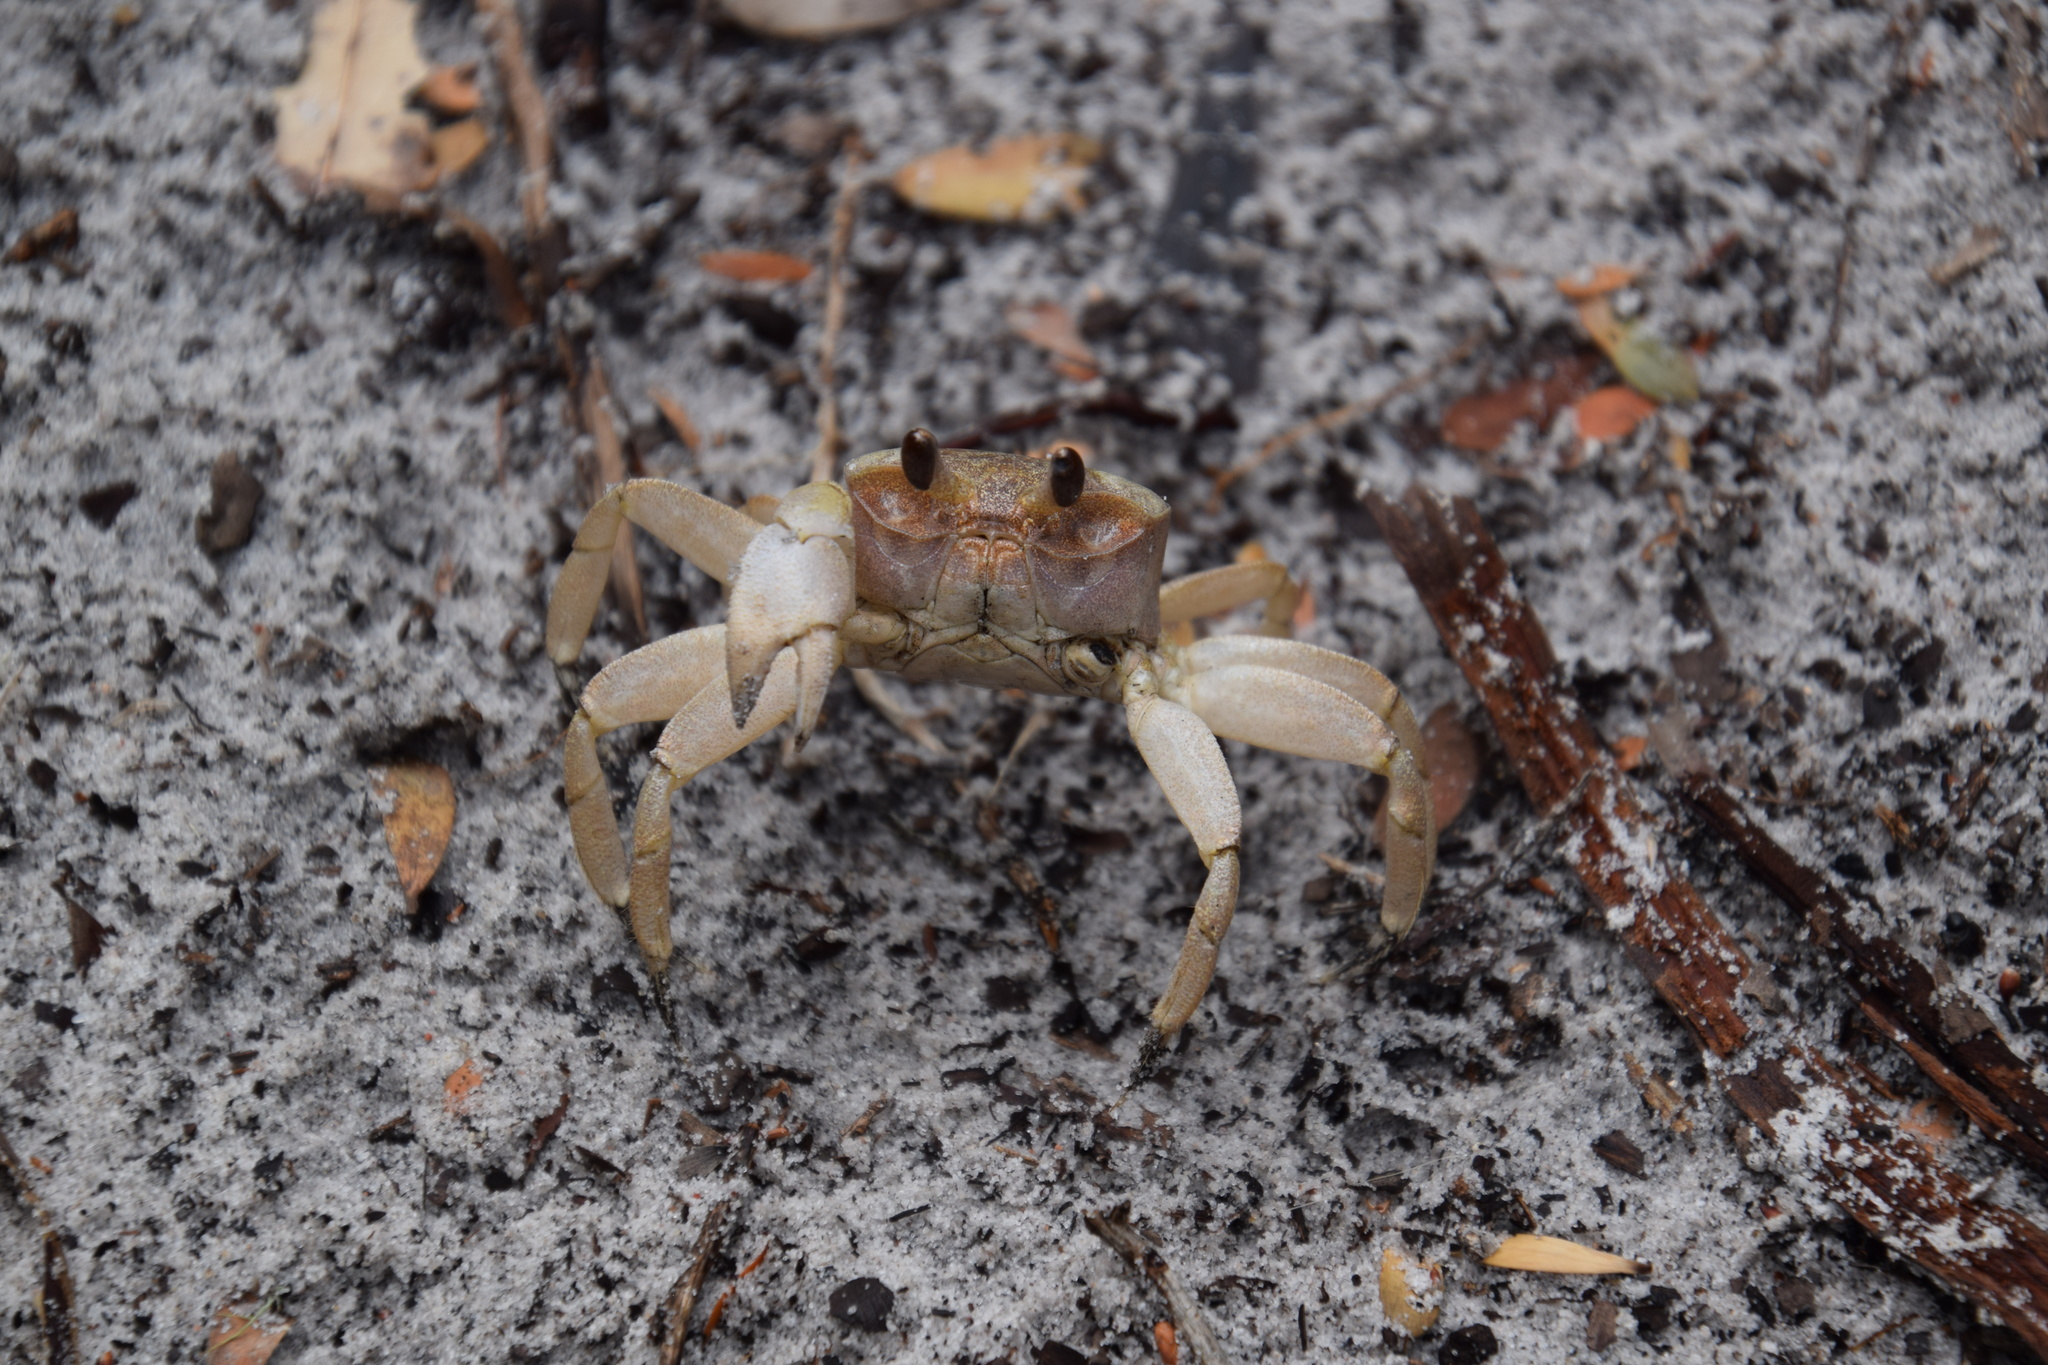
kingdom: Animalia
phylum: Arthropoda
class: Malacostraca
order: Decapoda
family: Ocypodidae
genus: Ocypode
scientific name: Ocypode cordimana
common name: Smooth-eyed ghost crab
